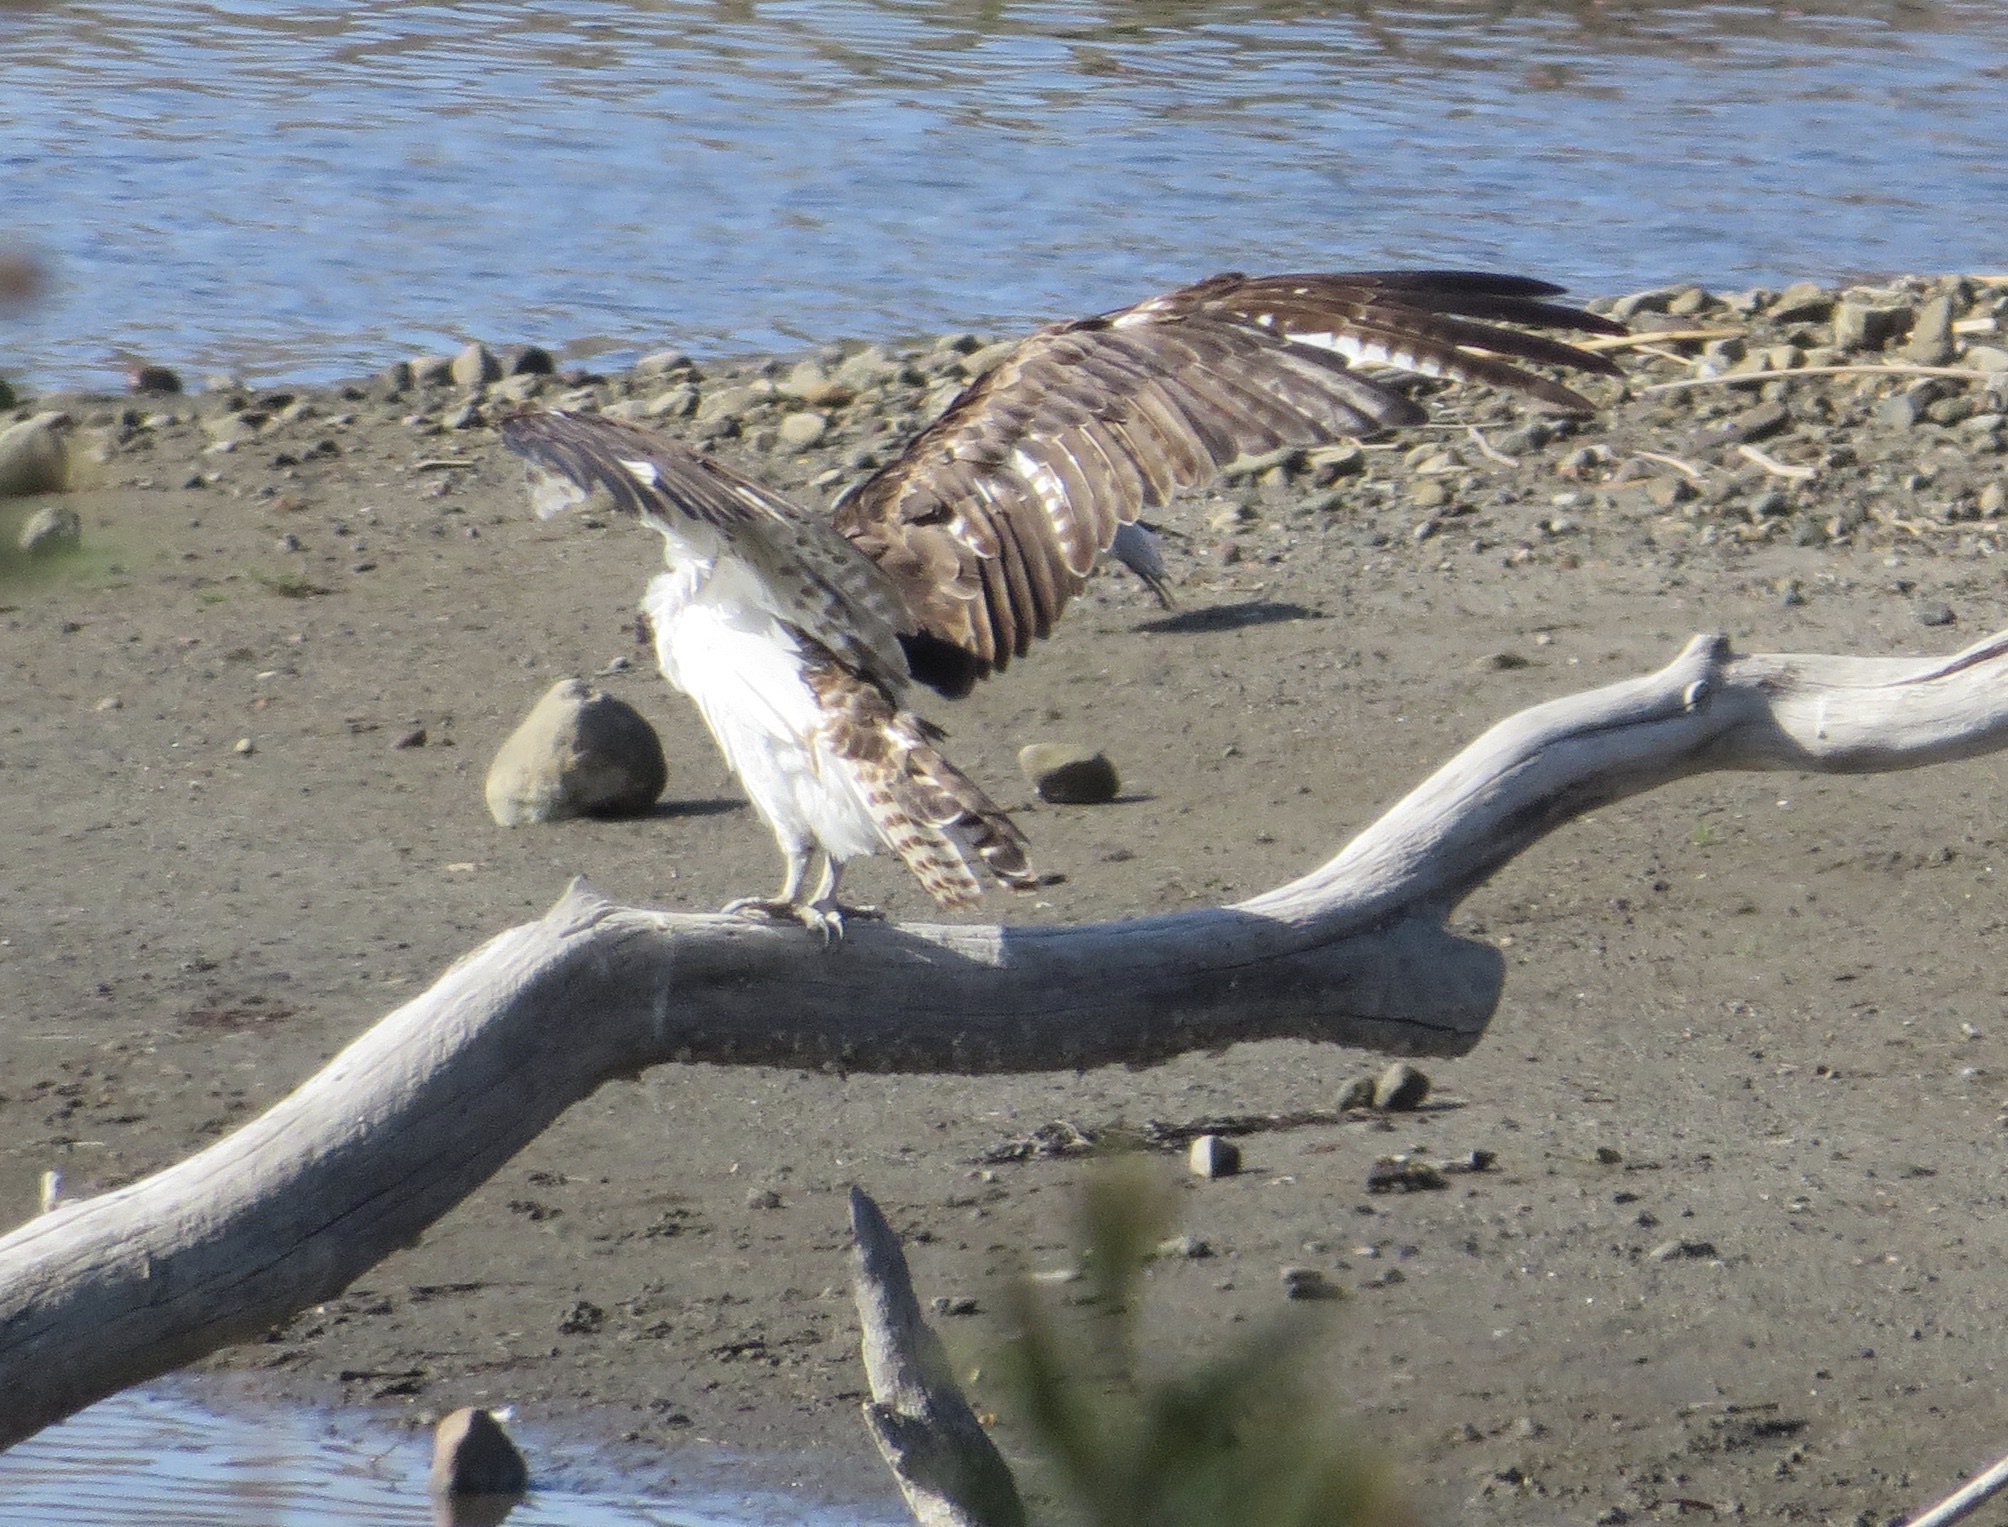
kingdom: Animalia
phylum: Chordata
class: Aves
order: Accipitriformes
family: Pandionidae
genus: Pandion
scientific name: Pandion haliaetus
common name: Osprey
